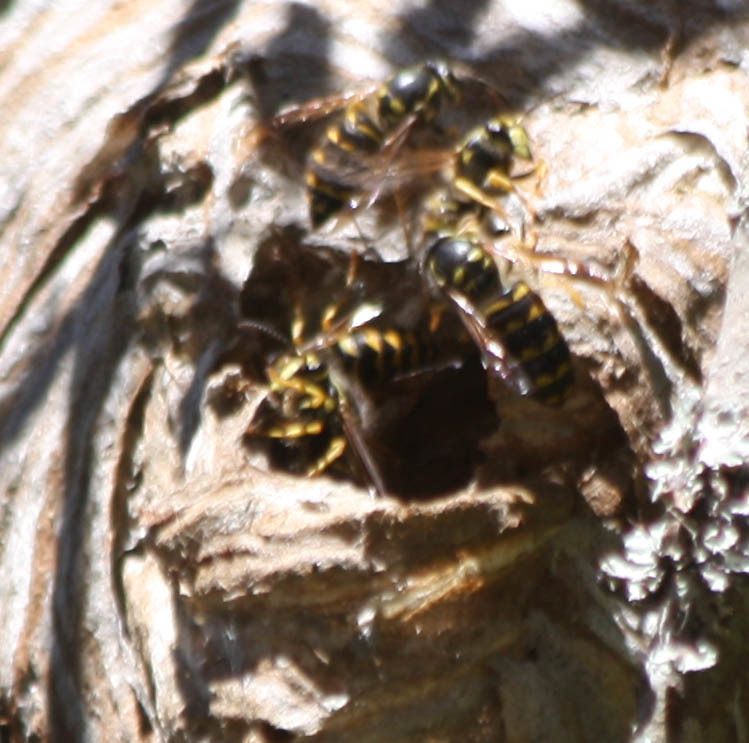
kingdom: Animalia
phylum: Arthropoda
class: Insecta
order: Hymenoptera
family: Vespidae
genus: Dolichovespula
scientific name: Dolichovespula arenaria
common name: Aerial yellowjacket
